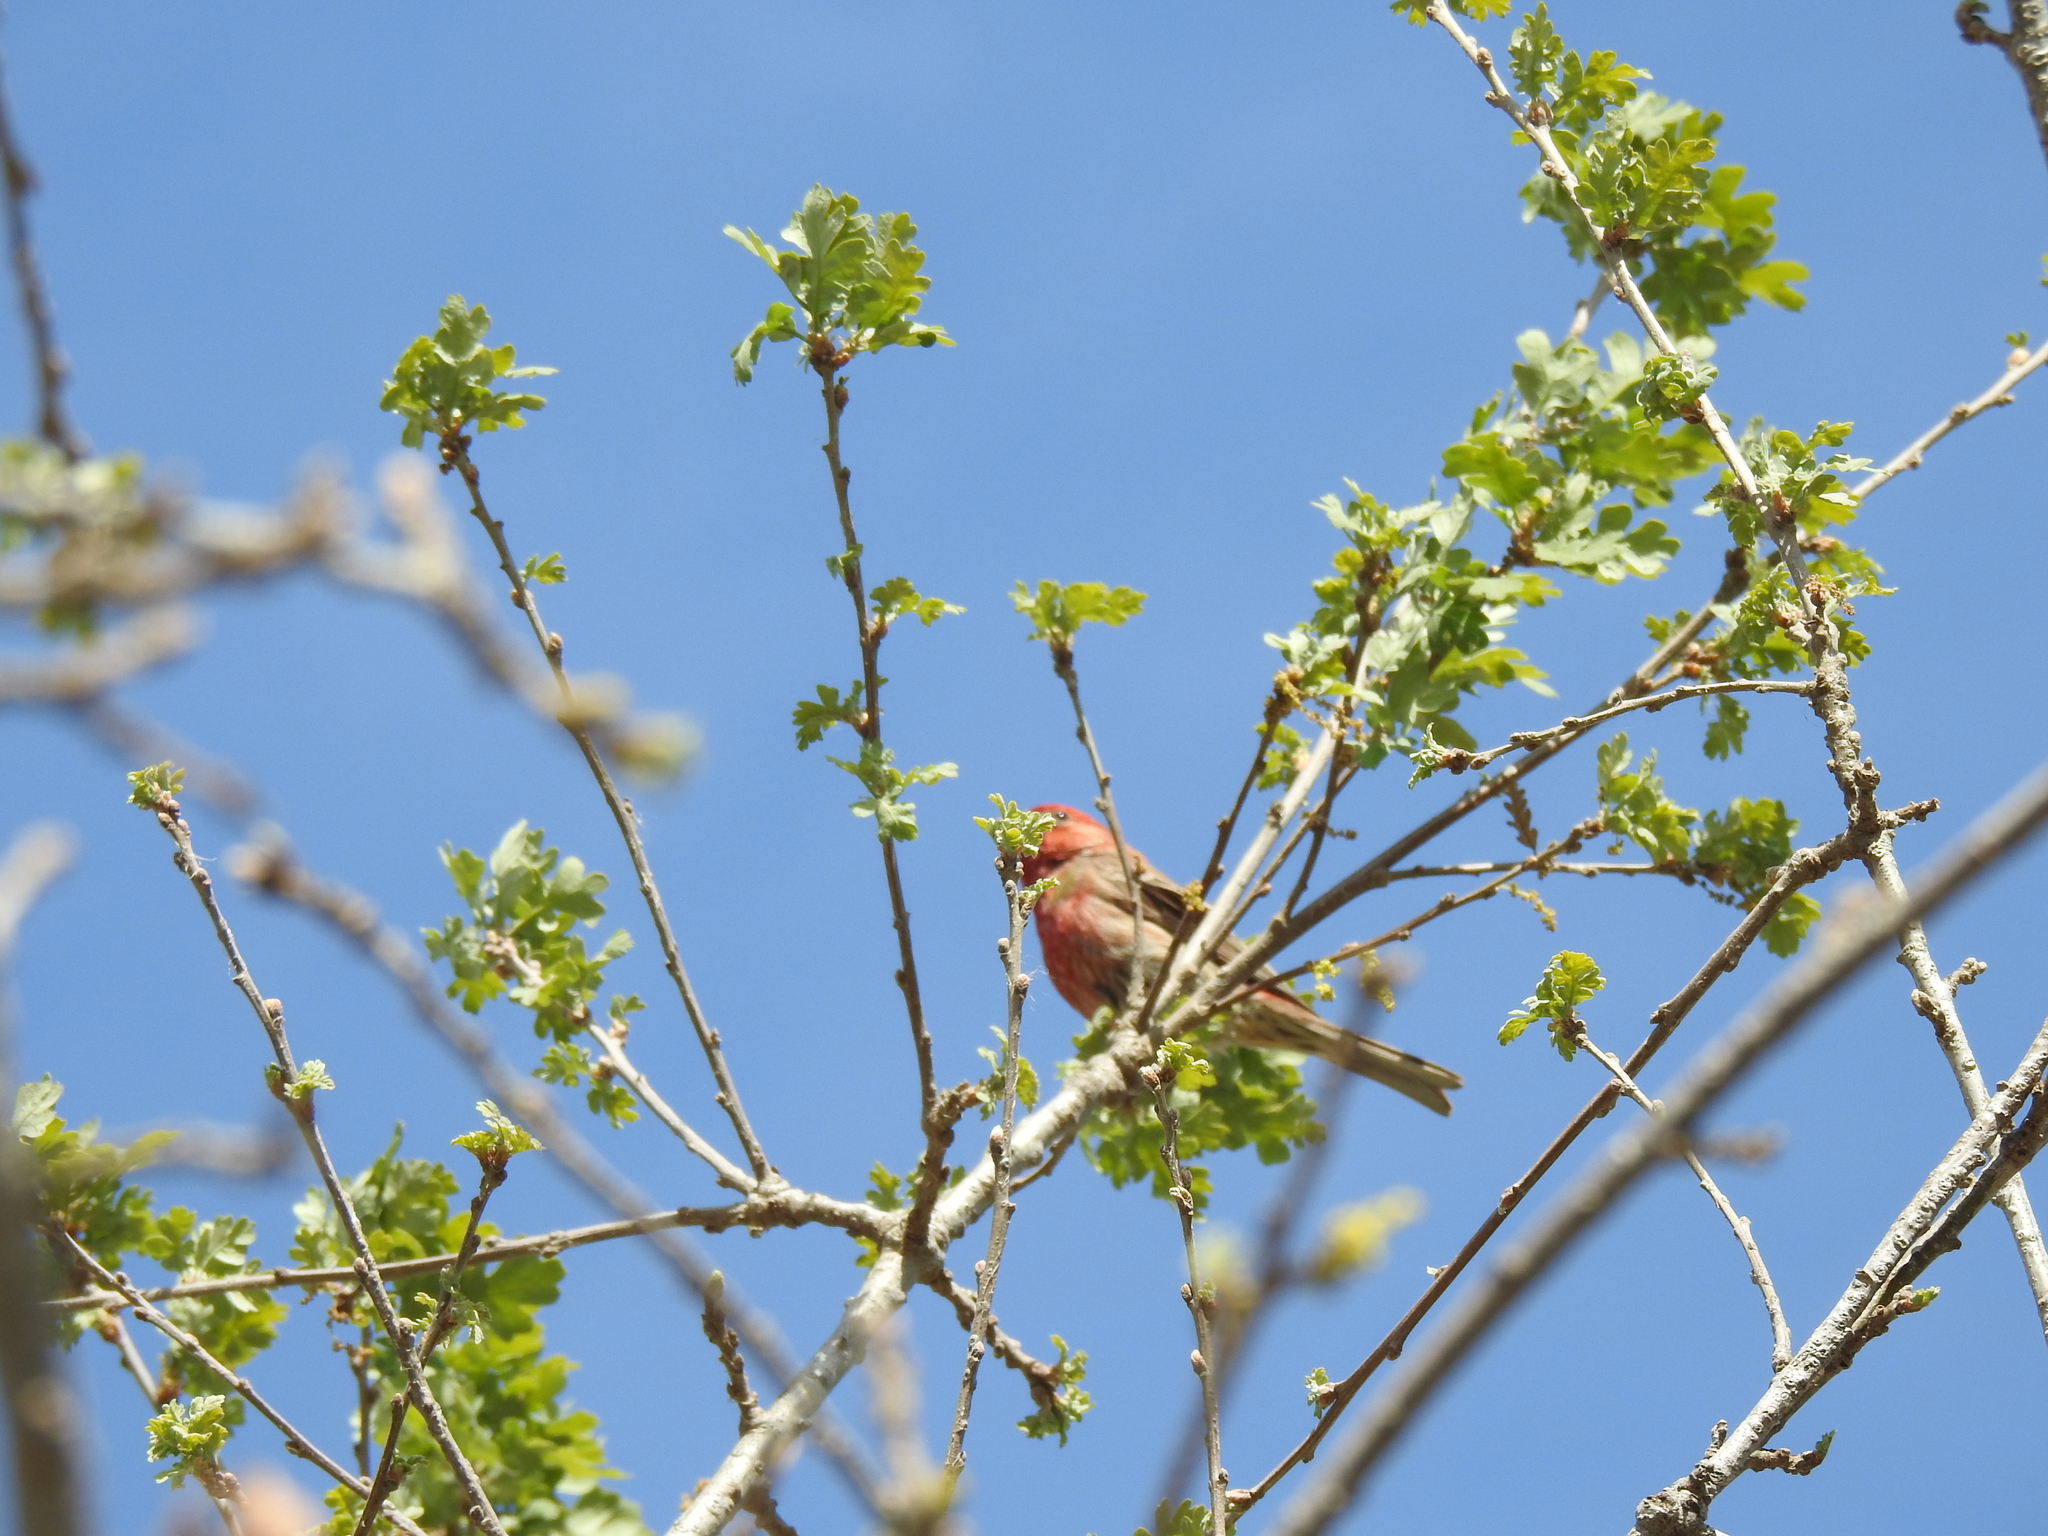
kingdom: Animalia
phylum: Chordata
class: Aves
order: Passeriformes
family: Fringillidae
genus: Haemorhous
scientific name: Haemorhous mexicanus
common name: House finch
